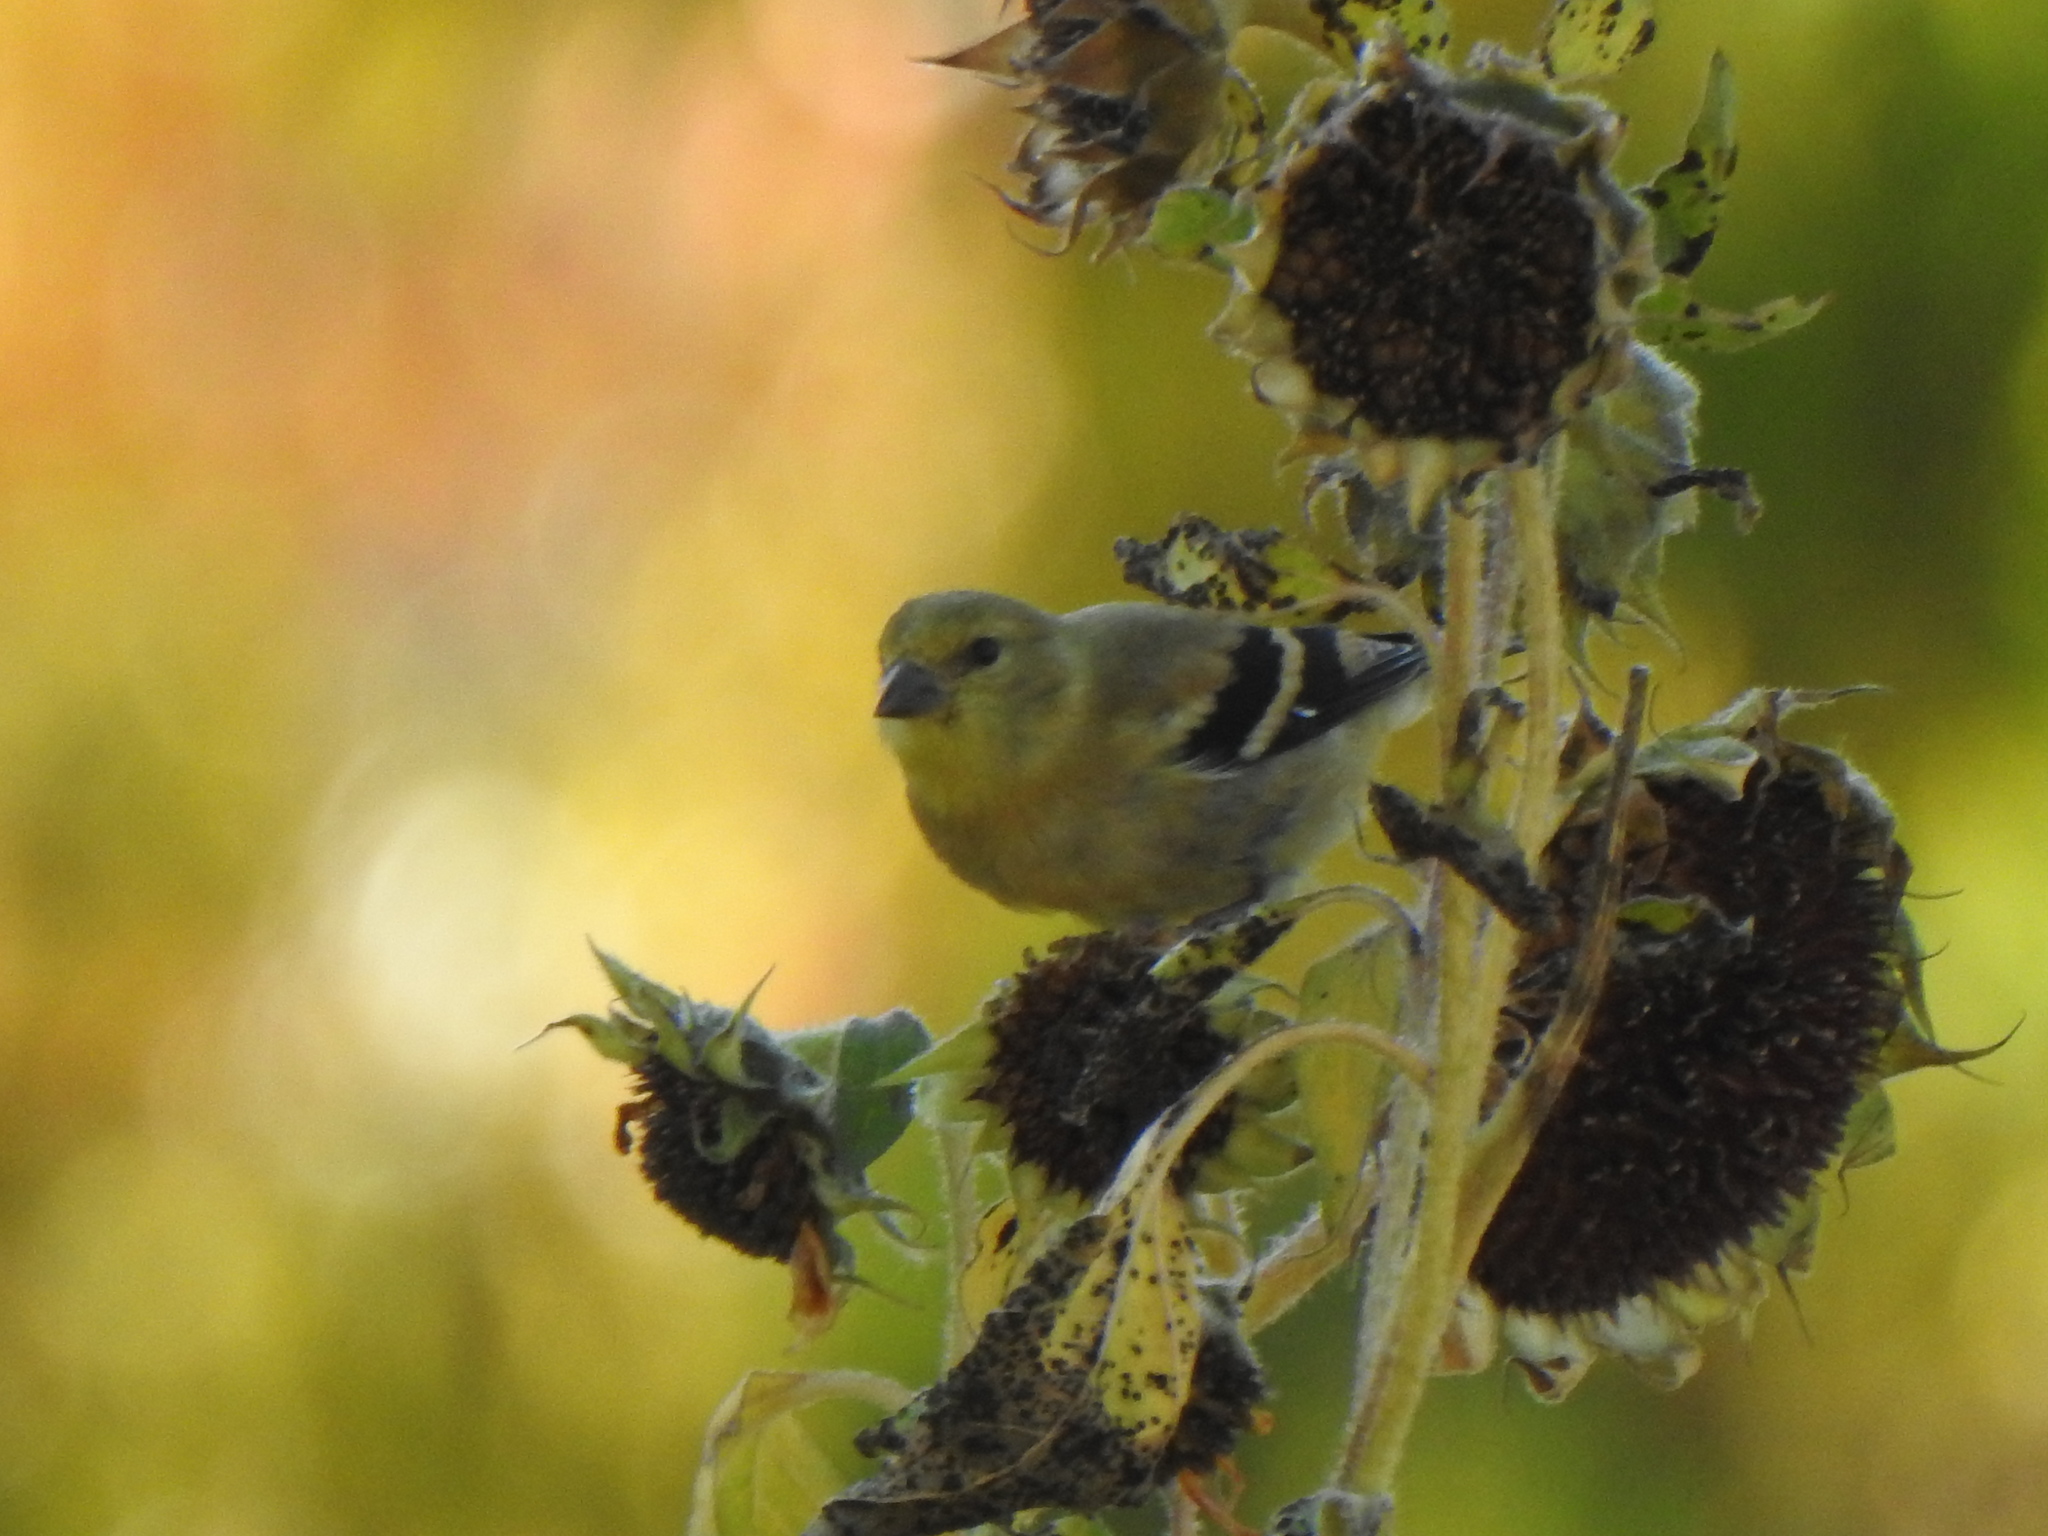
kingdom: Animalia
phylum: Chordata
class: Aves
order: Passeriformes
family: Fringillidae
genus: Spinus
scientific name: Spinus tristis
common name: American goldfinch
